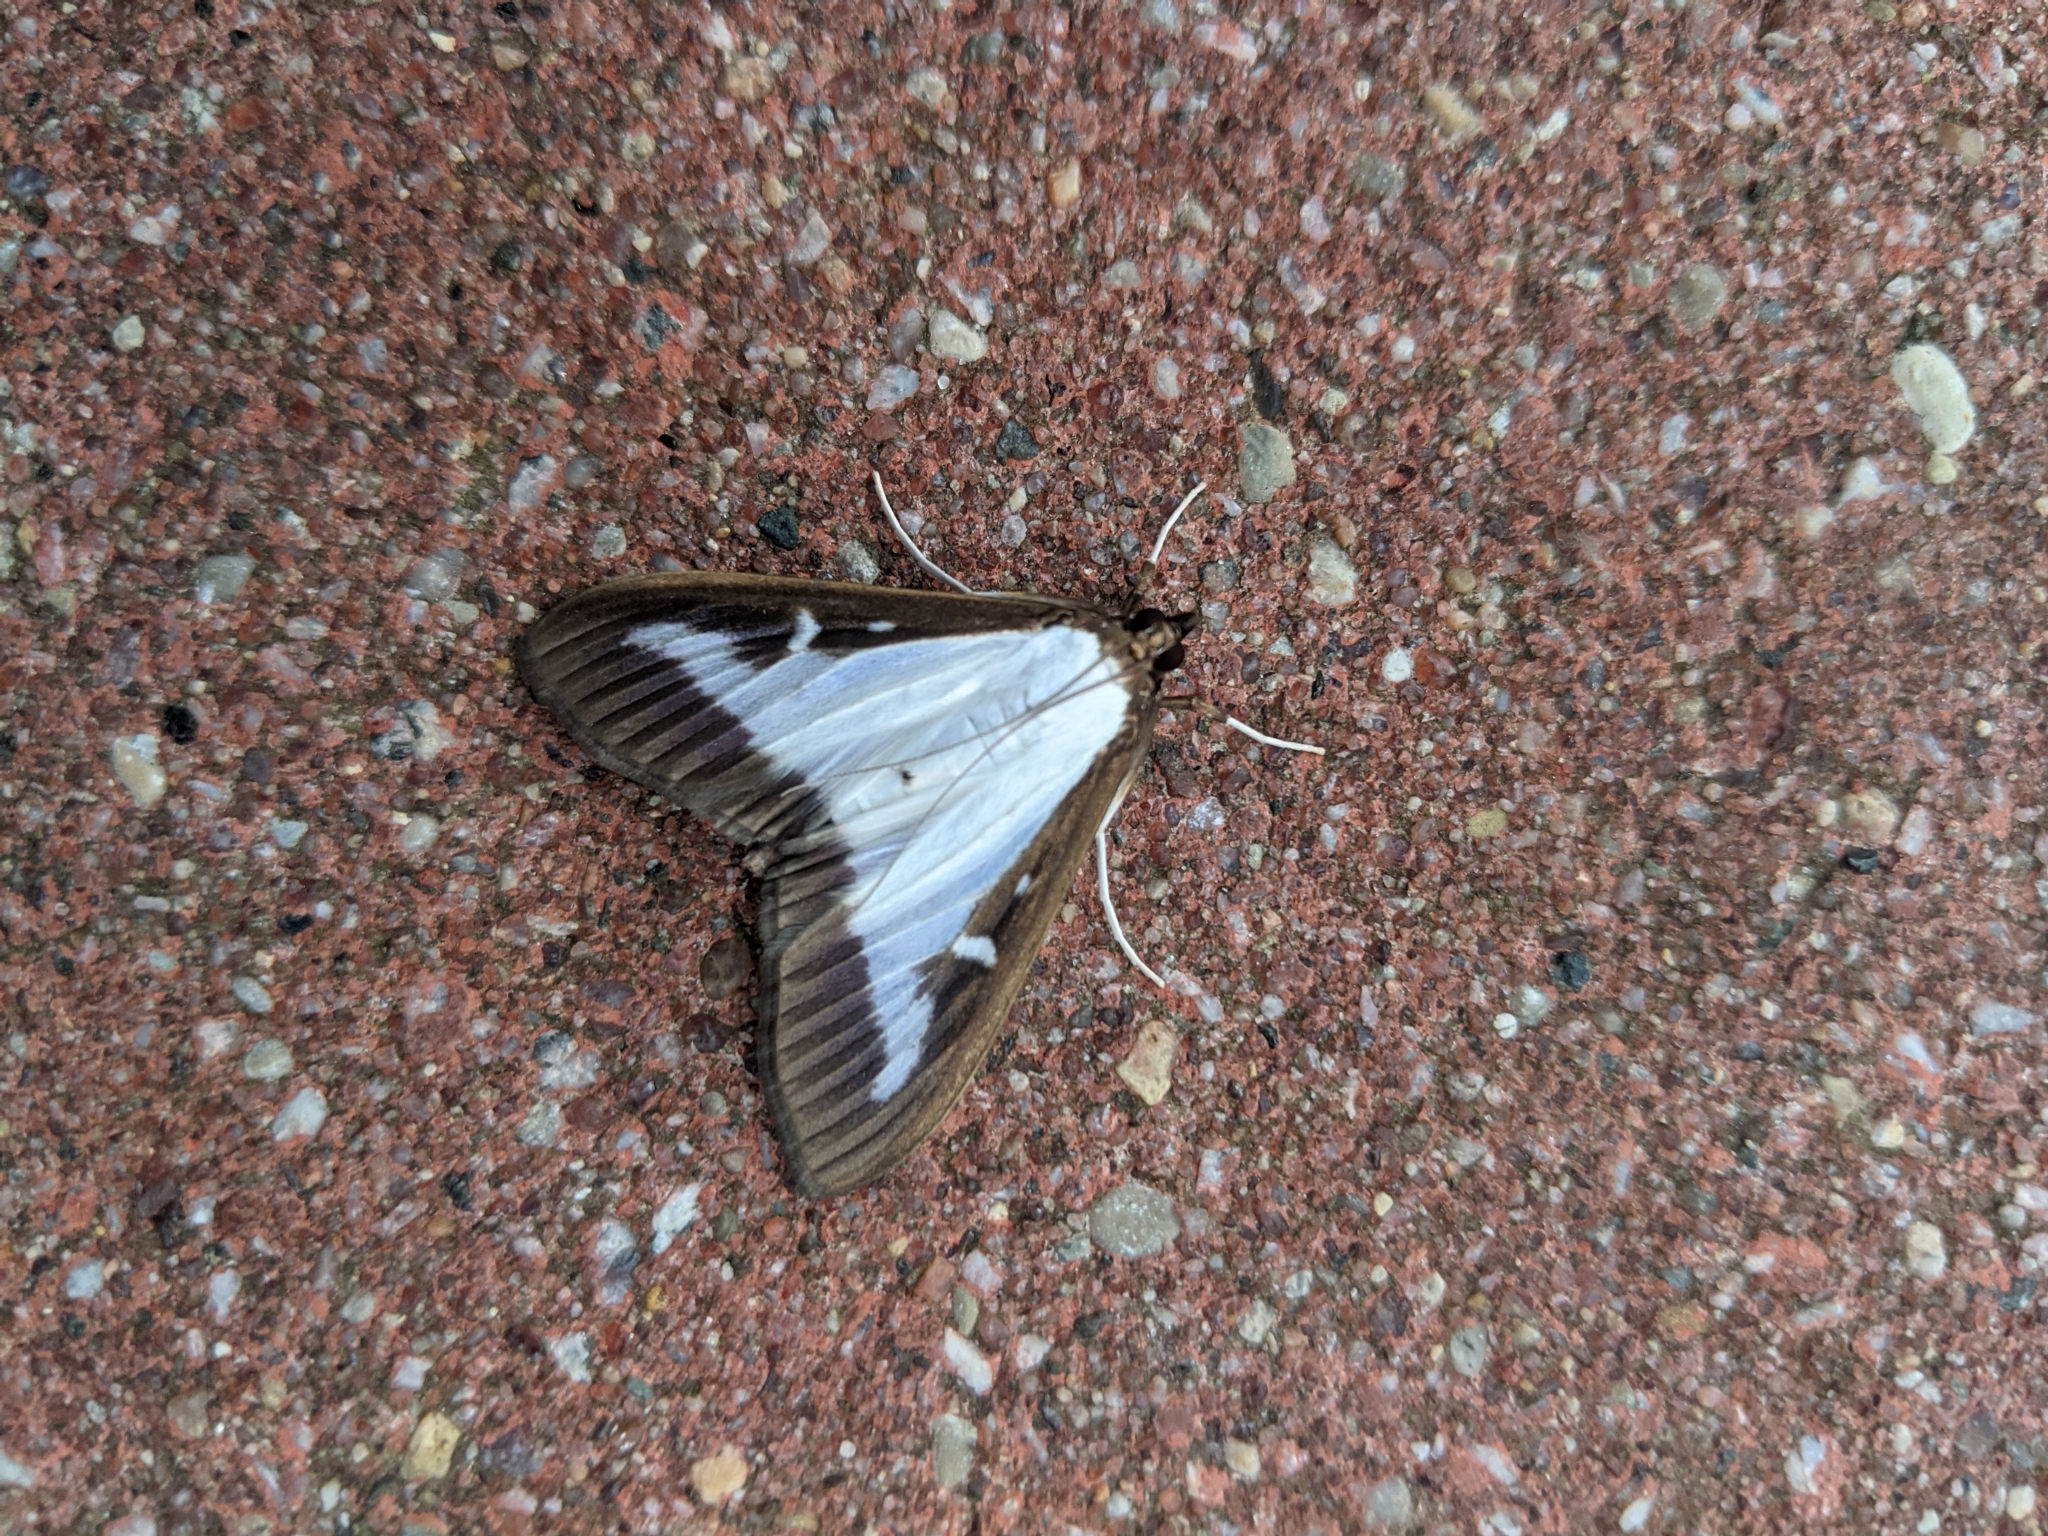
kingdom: Animalia
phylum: Arthropoda
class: Insecta
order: Lepidoptera
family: Crambidae
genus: Cydalima
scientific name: Cydalima perspectalis
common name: Box tree moth
